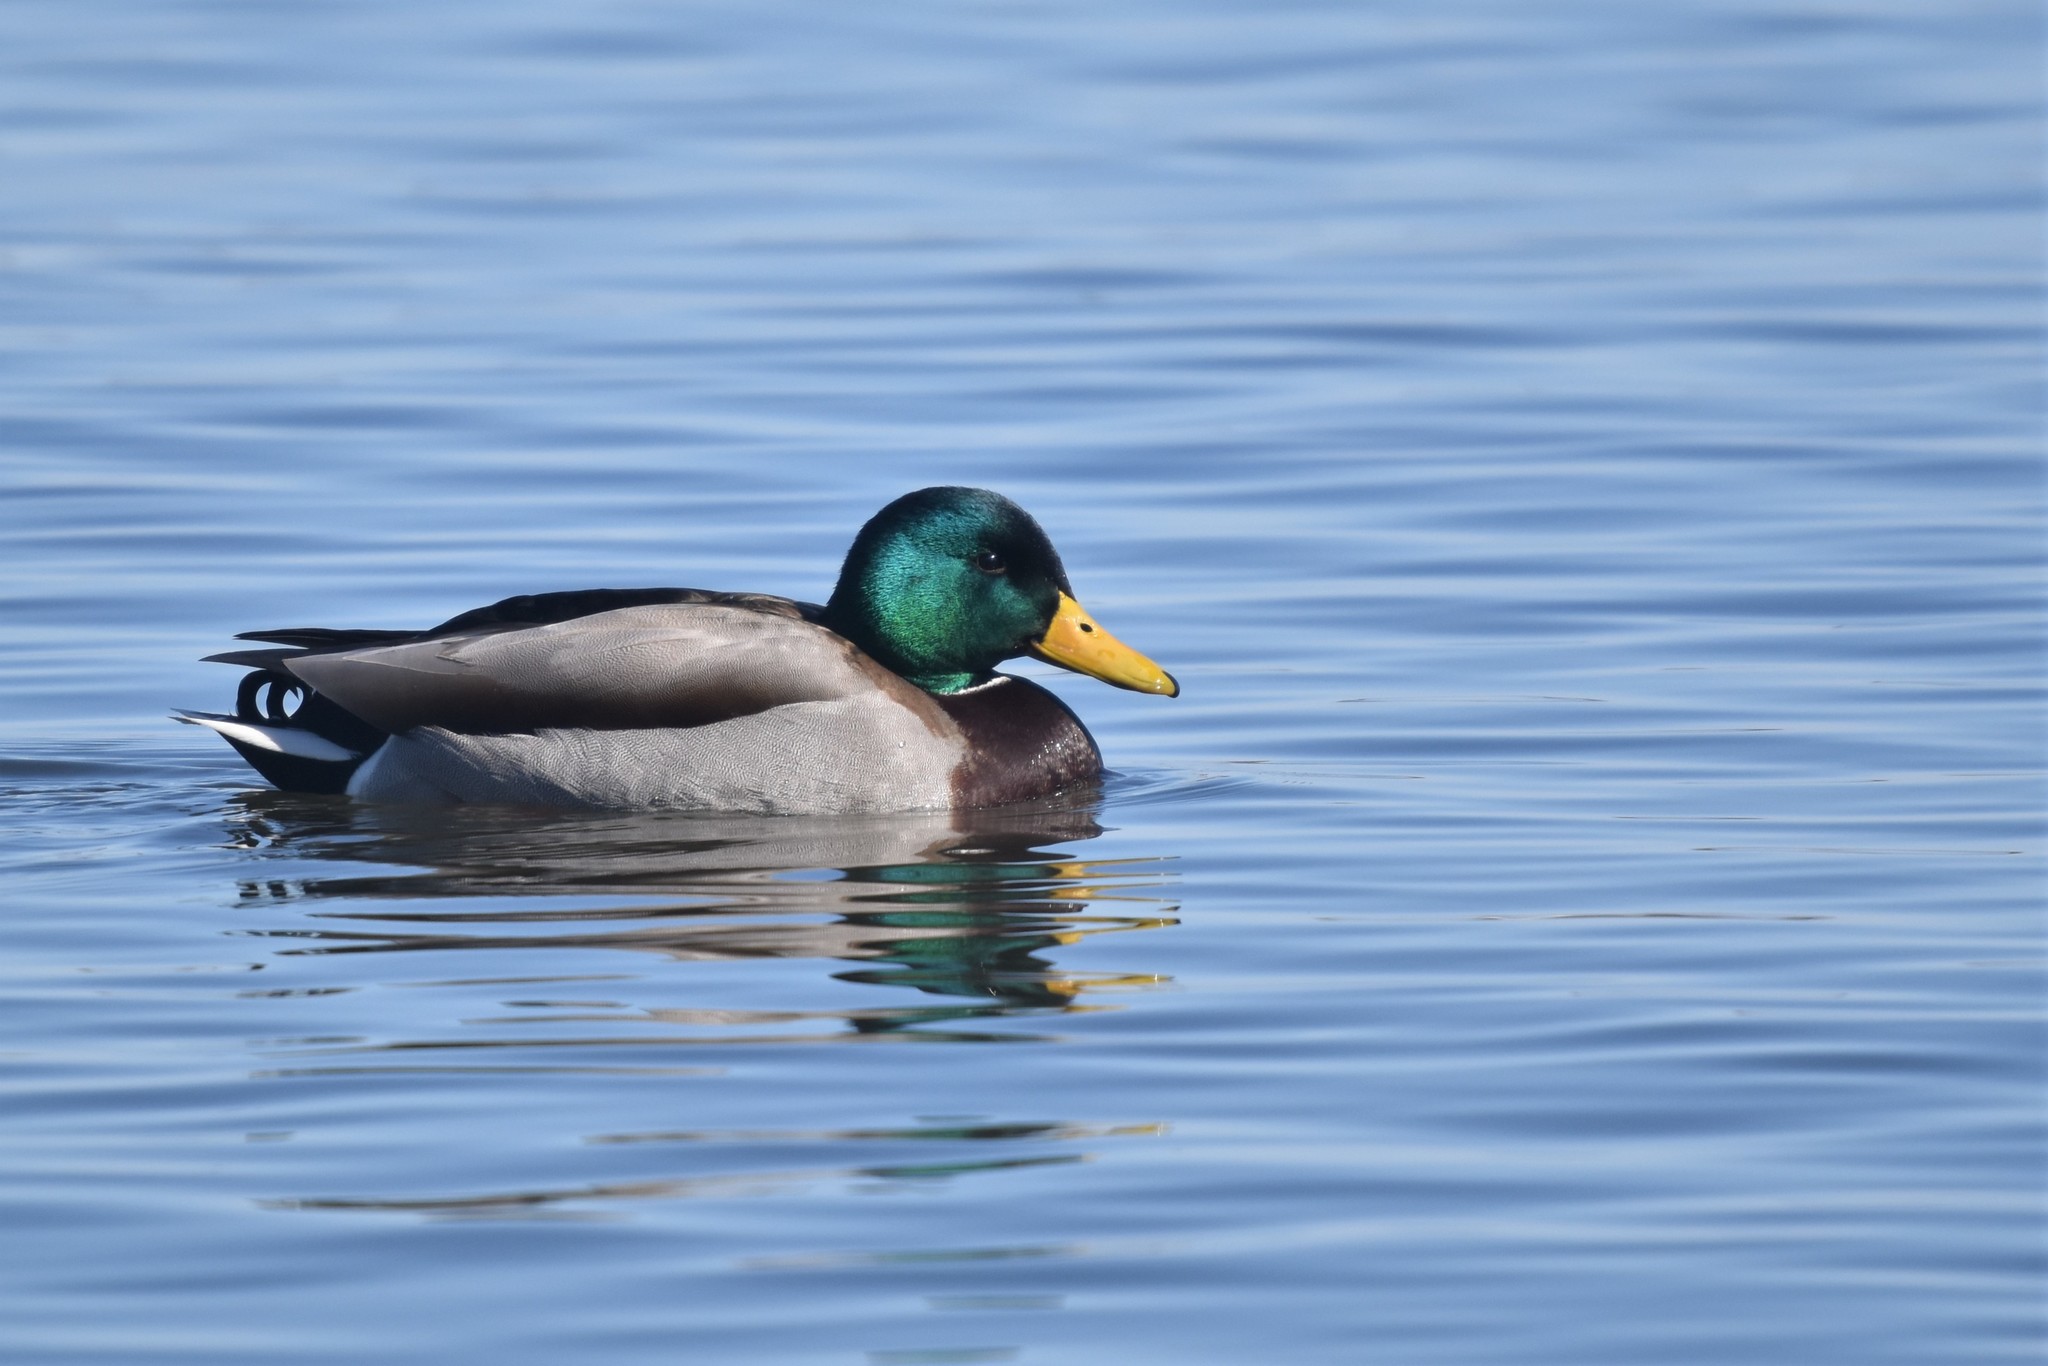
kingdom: Animalia
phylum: Chordata
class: Aves
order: Anseriformes
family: Anatidae
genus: Anas
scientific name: Anas platyrhynchos
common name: Mallard
